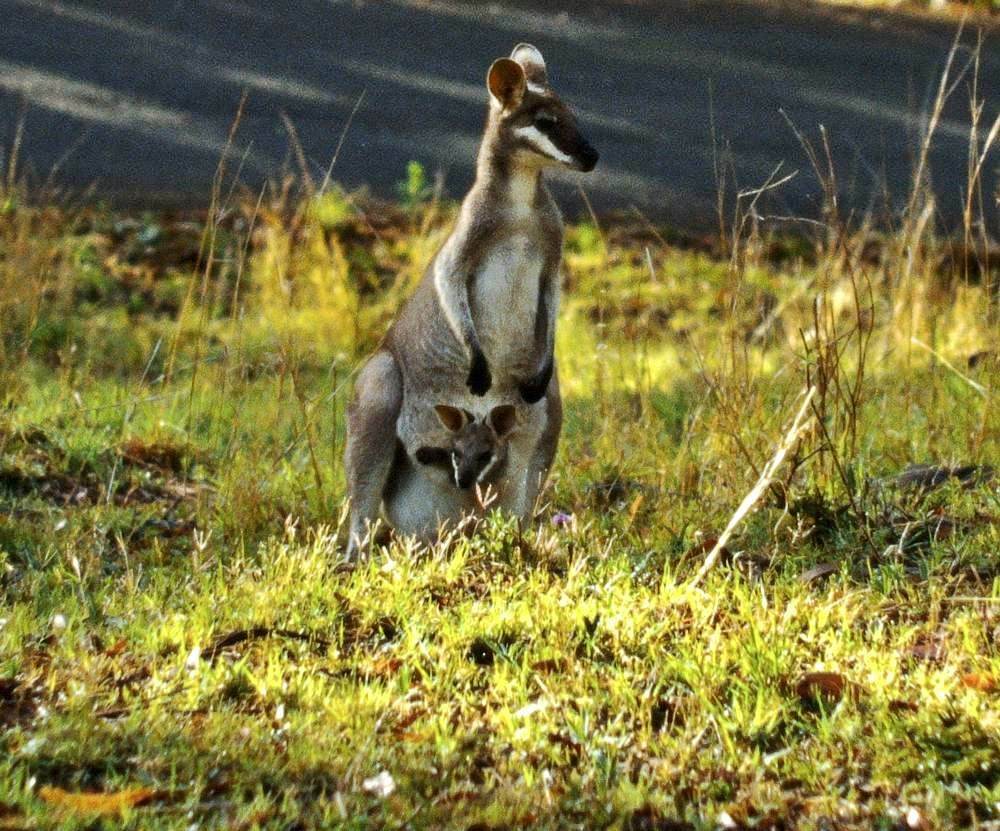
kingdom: Animalia
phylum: Chordata
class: Mammalia
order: Diprotodontia
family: Macropodidae
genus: Notamacropus
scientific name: Notamacropus parryi
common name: Whip-tailed wallaby
